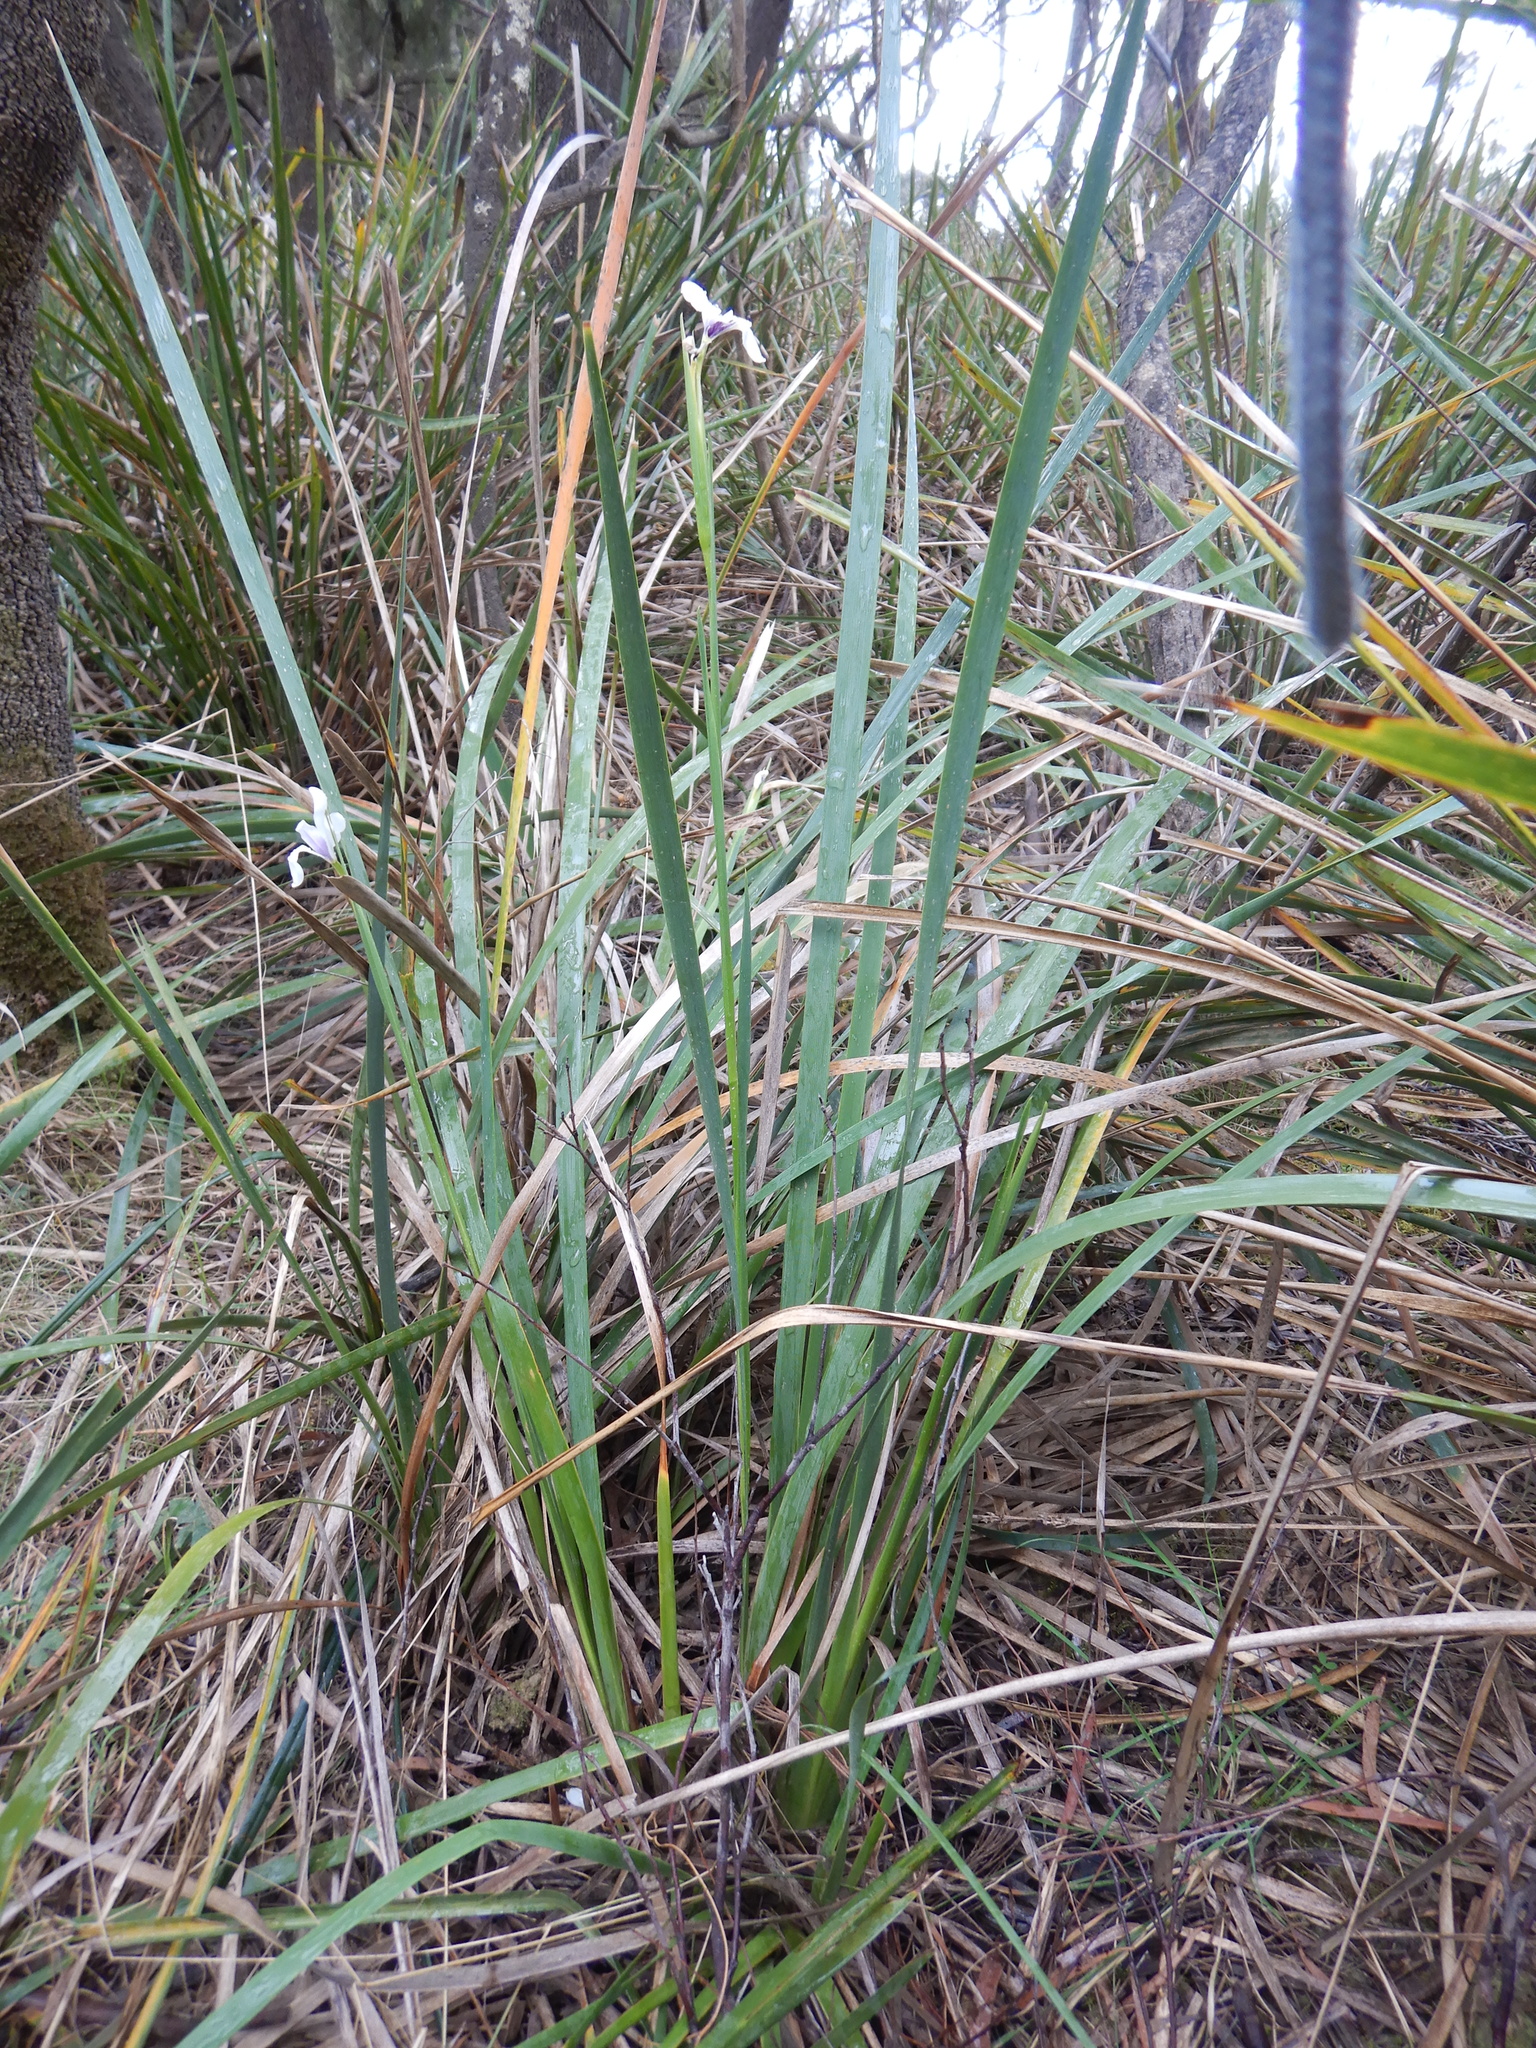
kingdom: Plantae
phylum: Tracheophyta
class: Liliopsida
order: Asparagales
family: Iridaceae
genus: Diplarrena
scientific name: Diplarrena moraea
